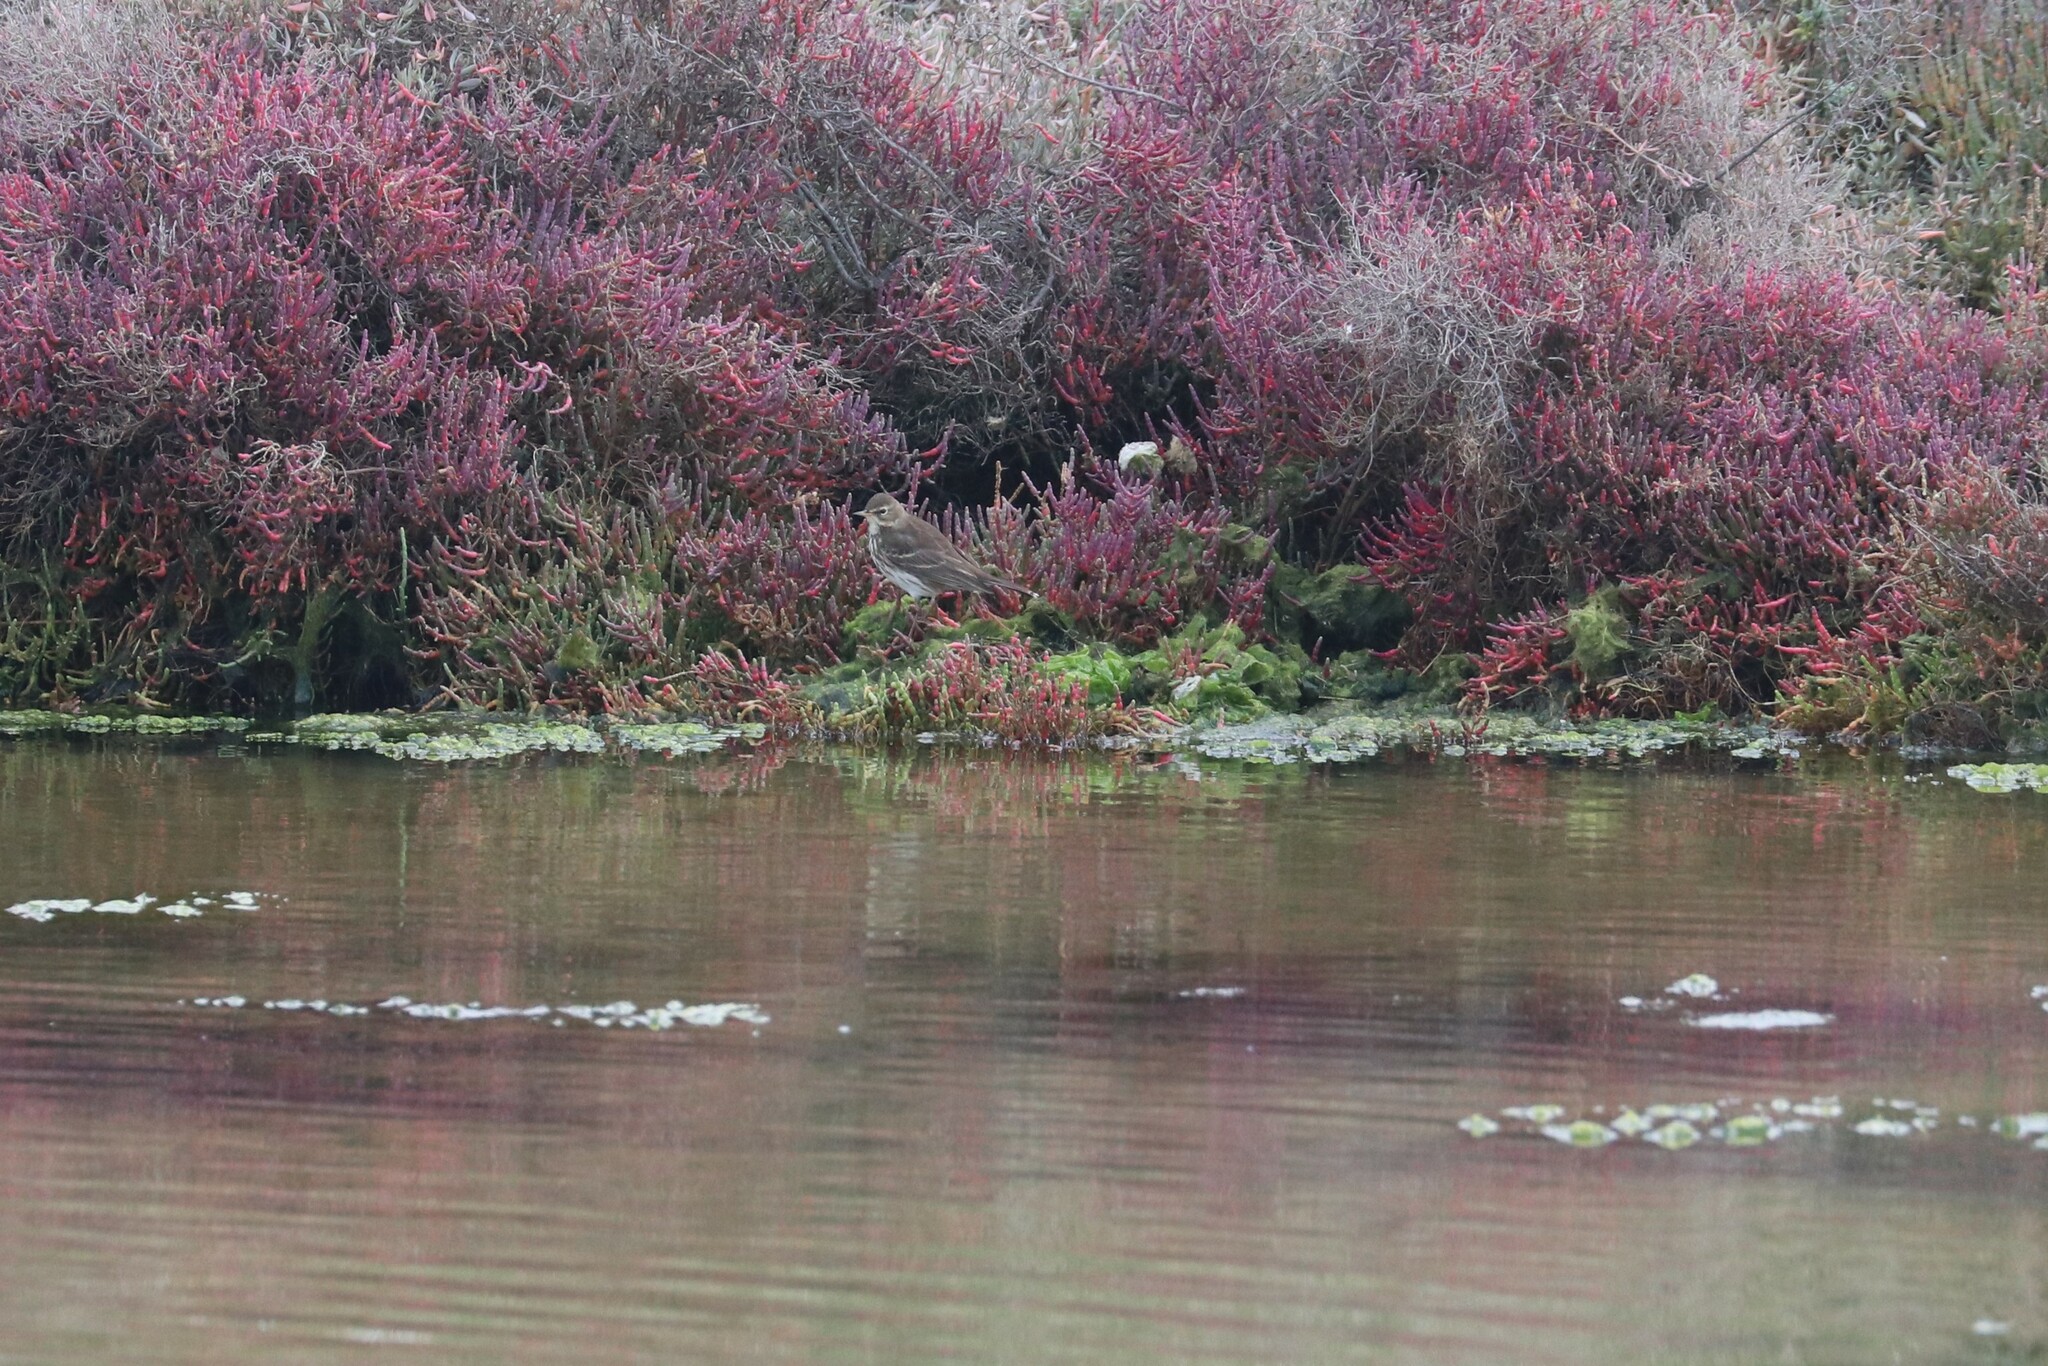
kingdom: Animalia
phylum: Chordata
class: Aves
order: Passeriformes
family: Motacillidae
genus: Anthus
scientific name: Anthus spinoletta
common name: Water pipit
